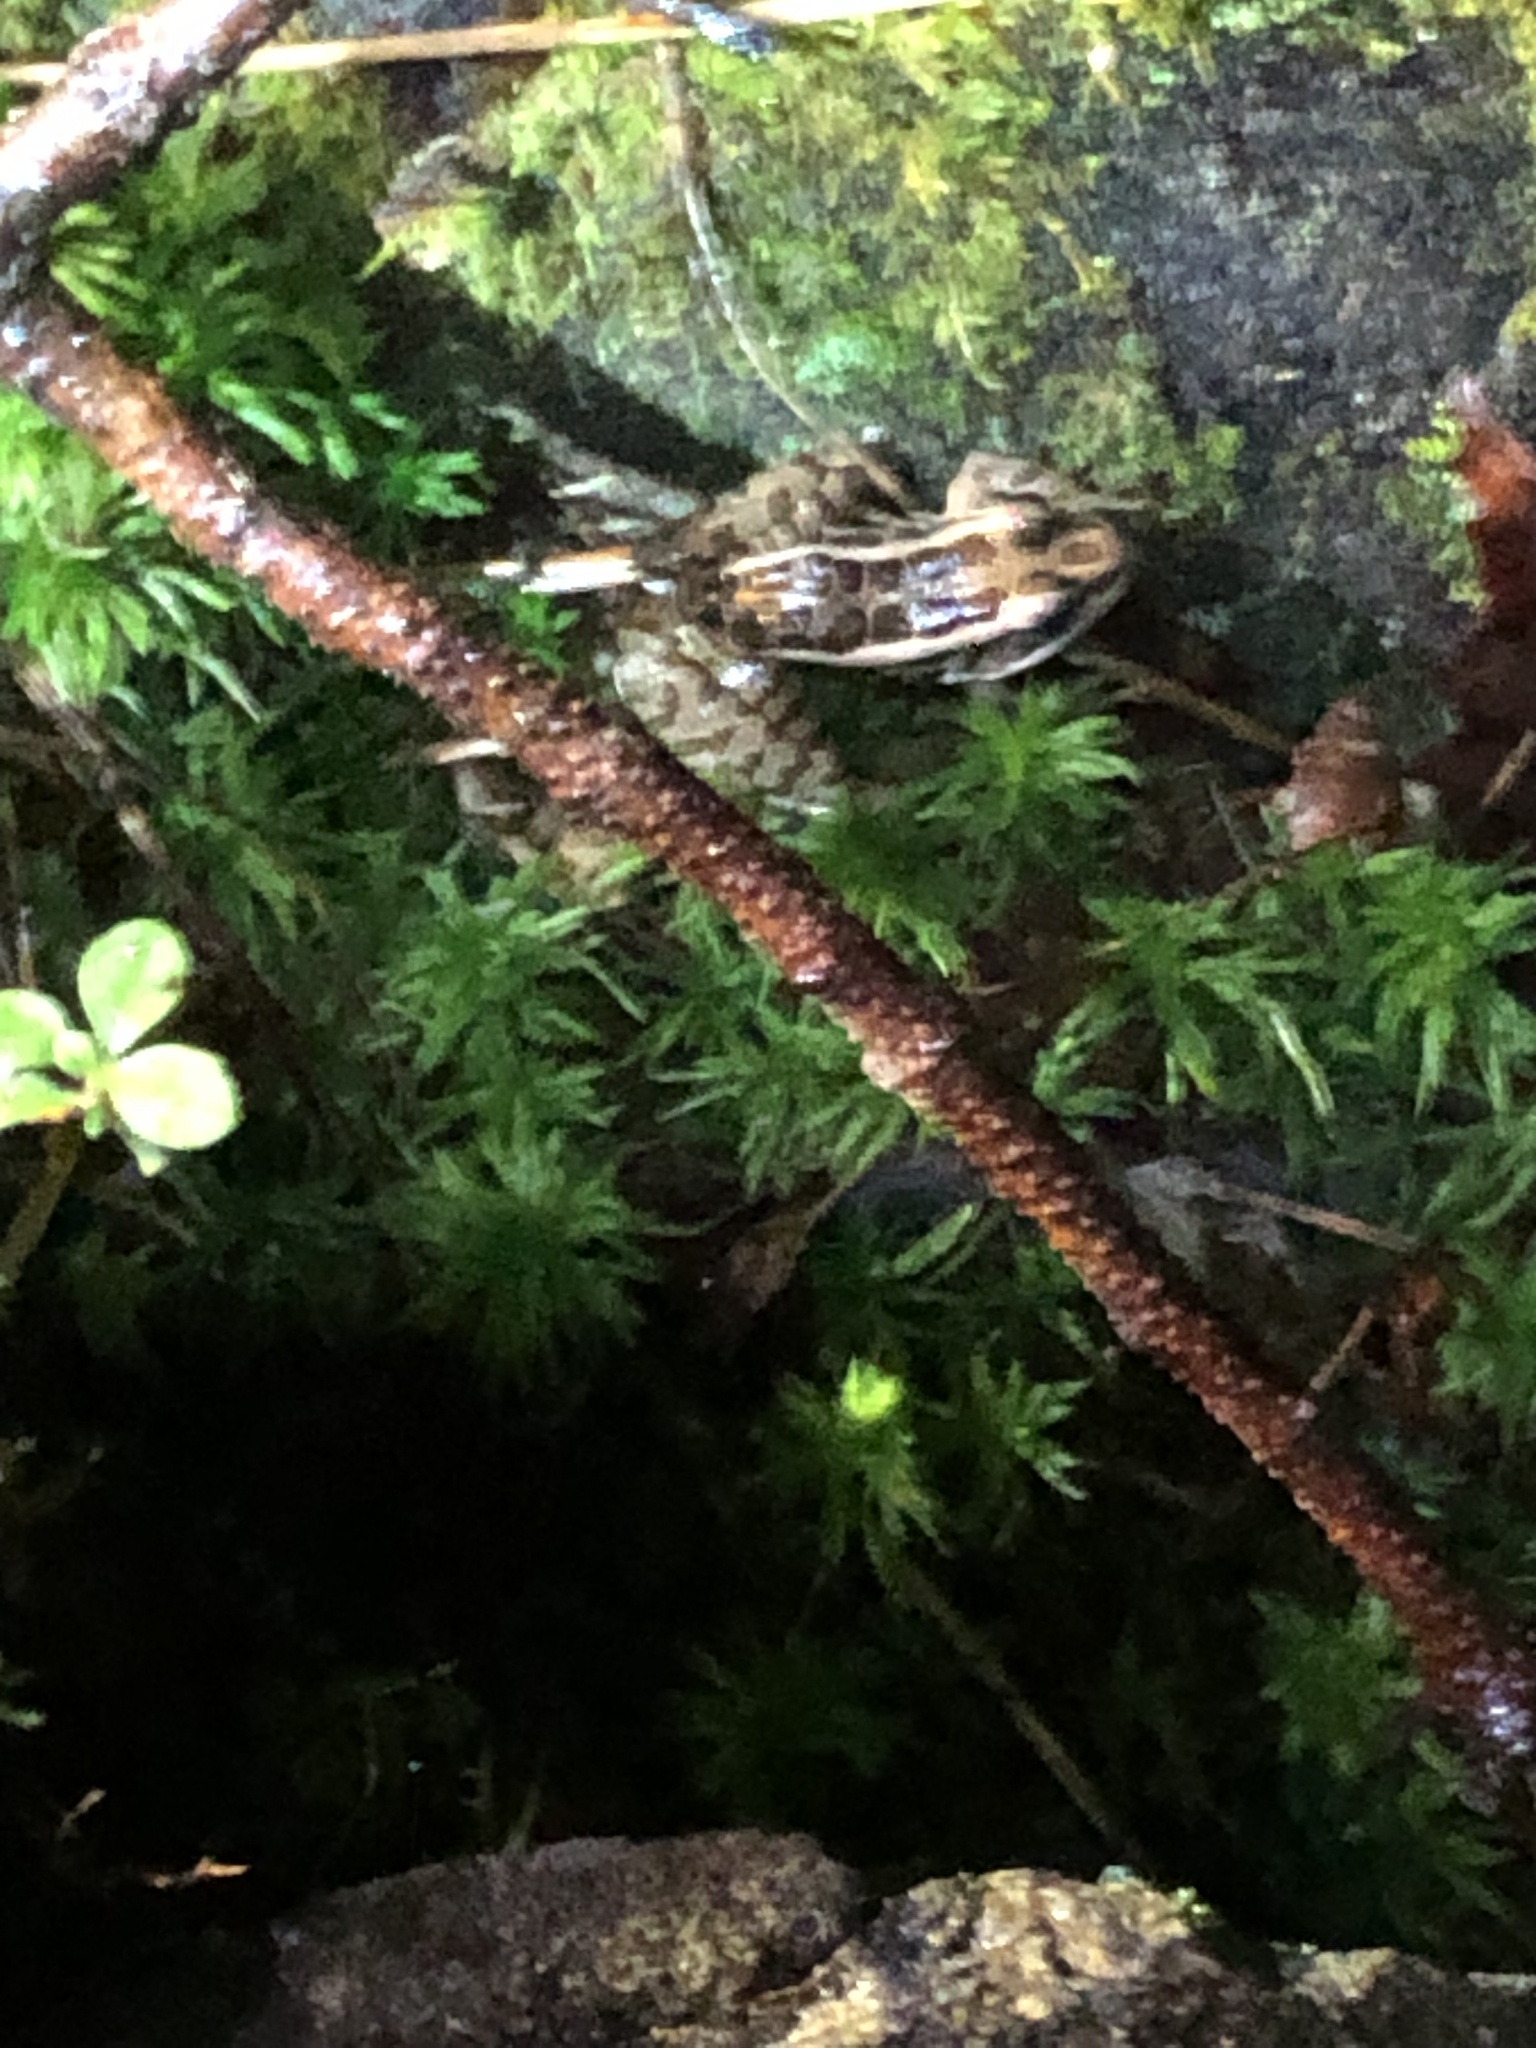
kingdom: Animalia
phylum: Chordata
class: Amphibia
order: Anura
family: Ranidae
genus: Lithobates
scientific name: Lithobates palustris
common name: Pickerel frog
